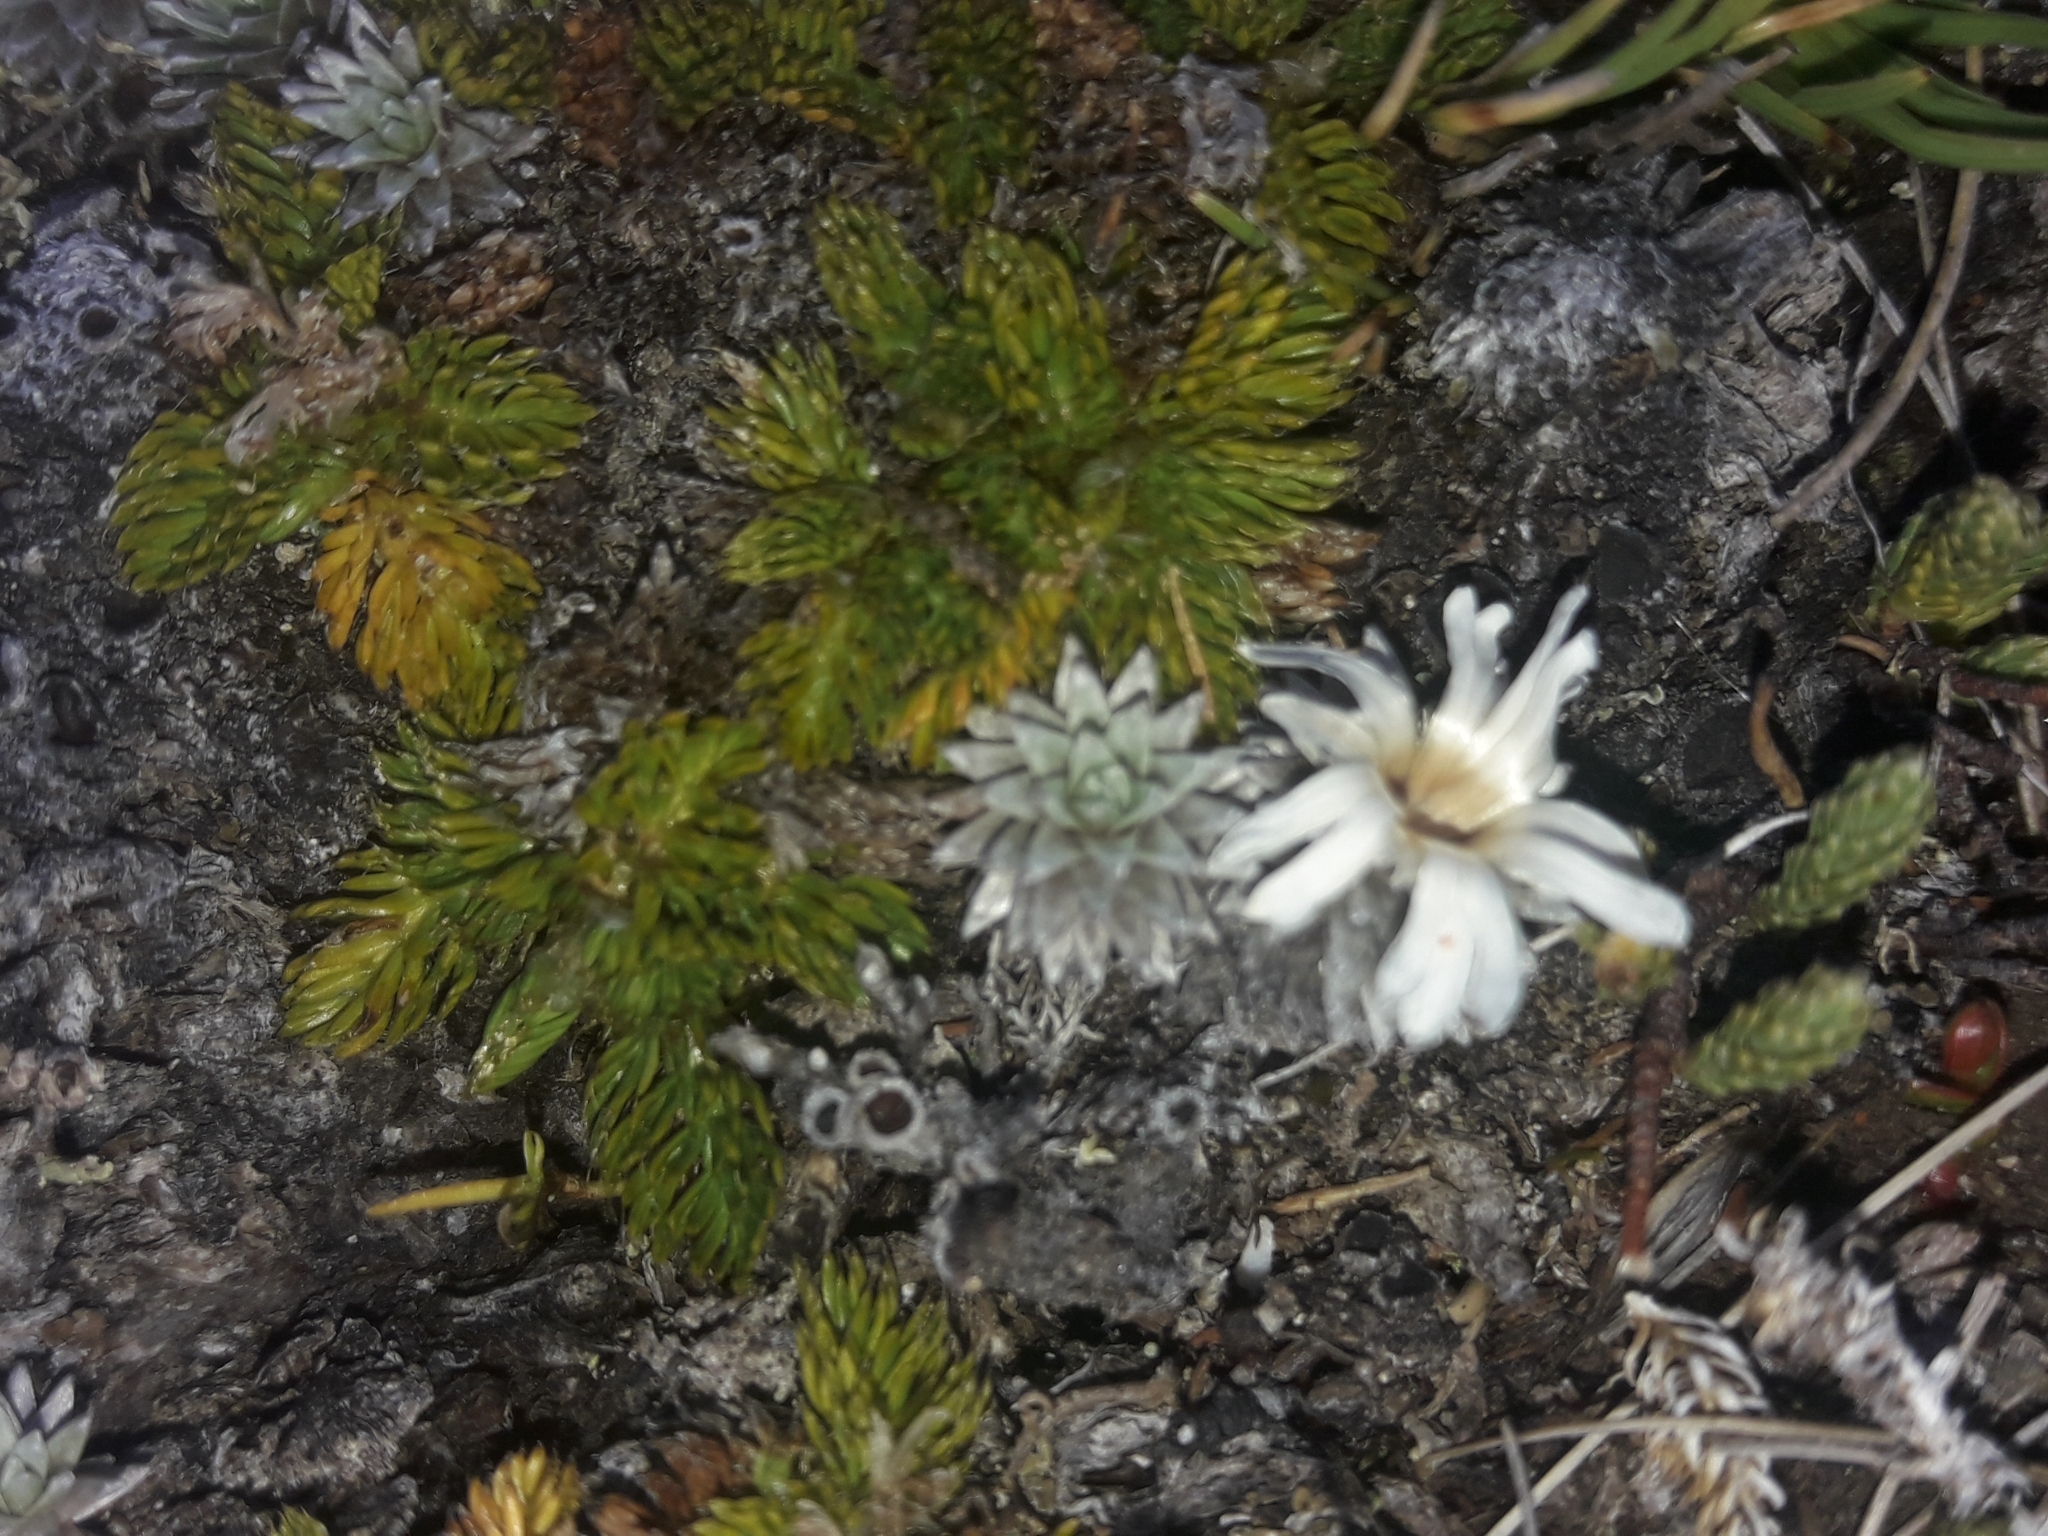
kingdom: Plantae
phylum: Tracheophyta
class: Magnoliopsida
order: Asterales
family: Asteraceae
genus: Raoulia
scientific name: Raoulia grandiflora
